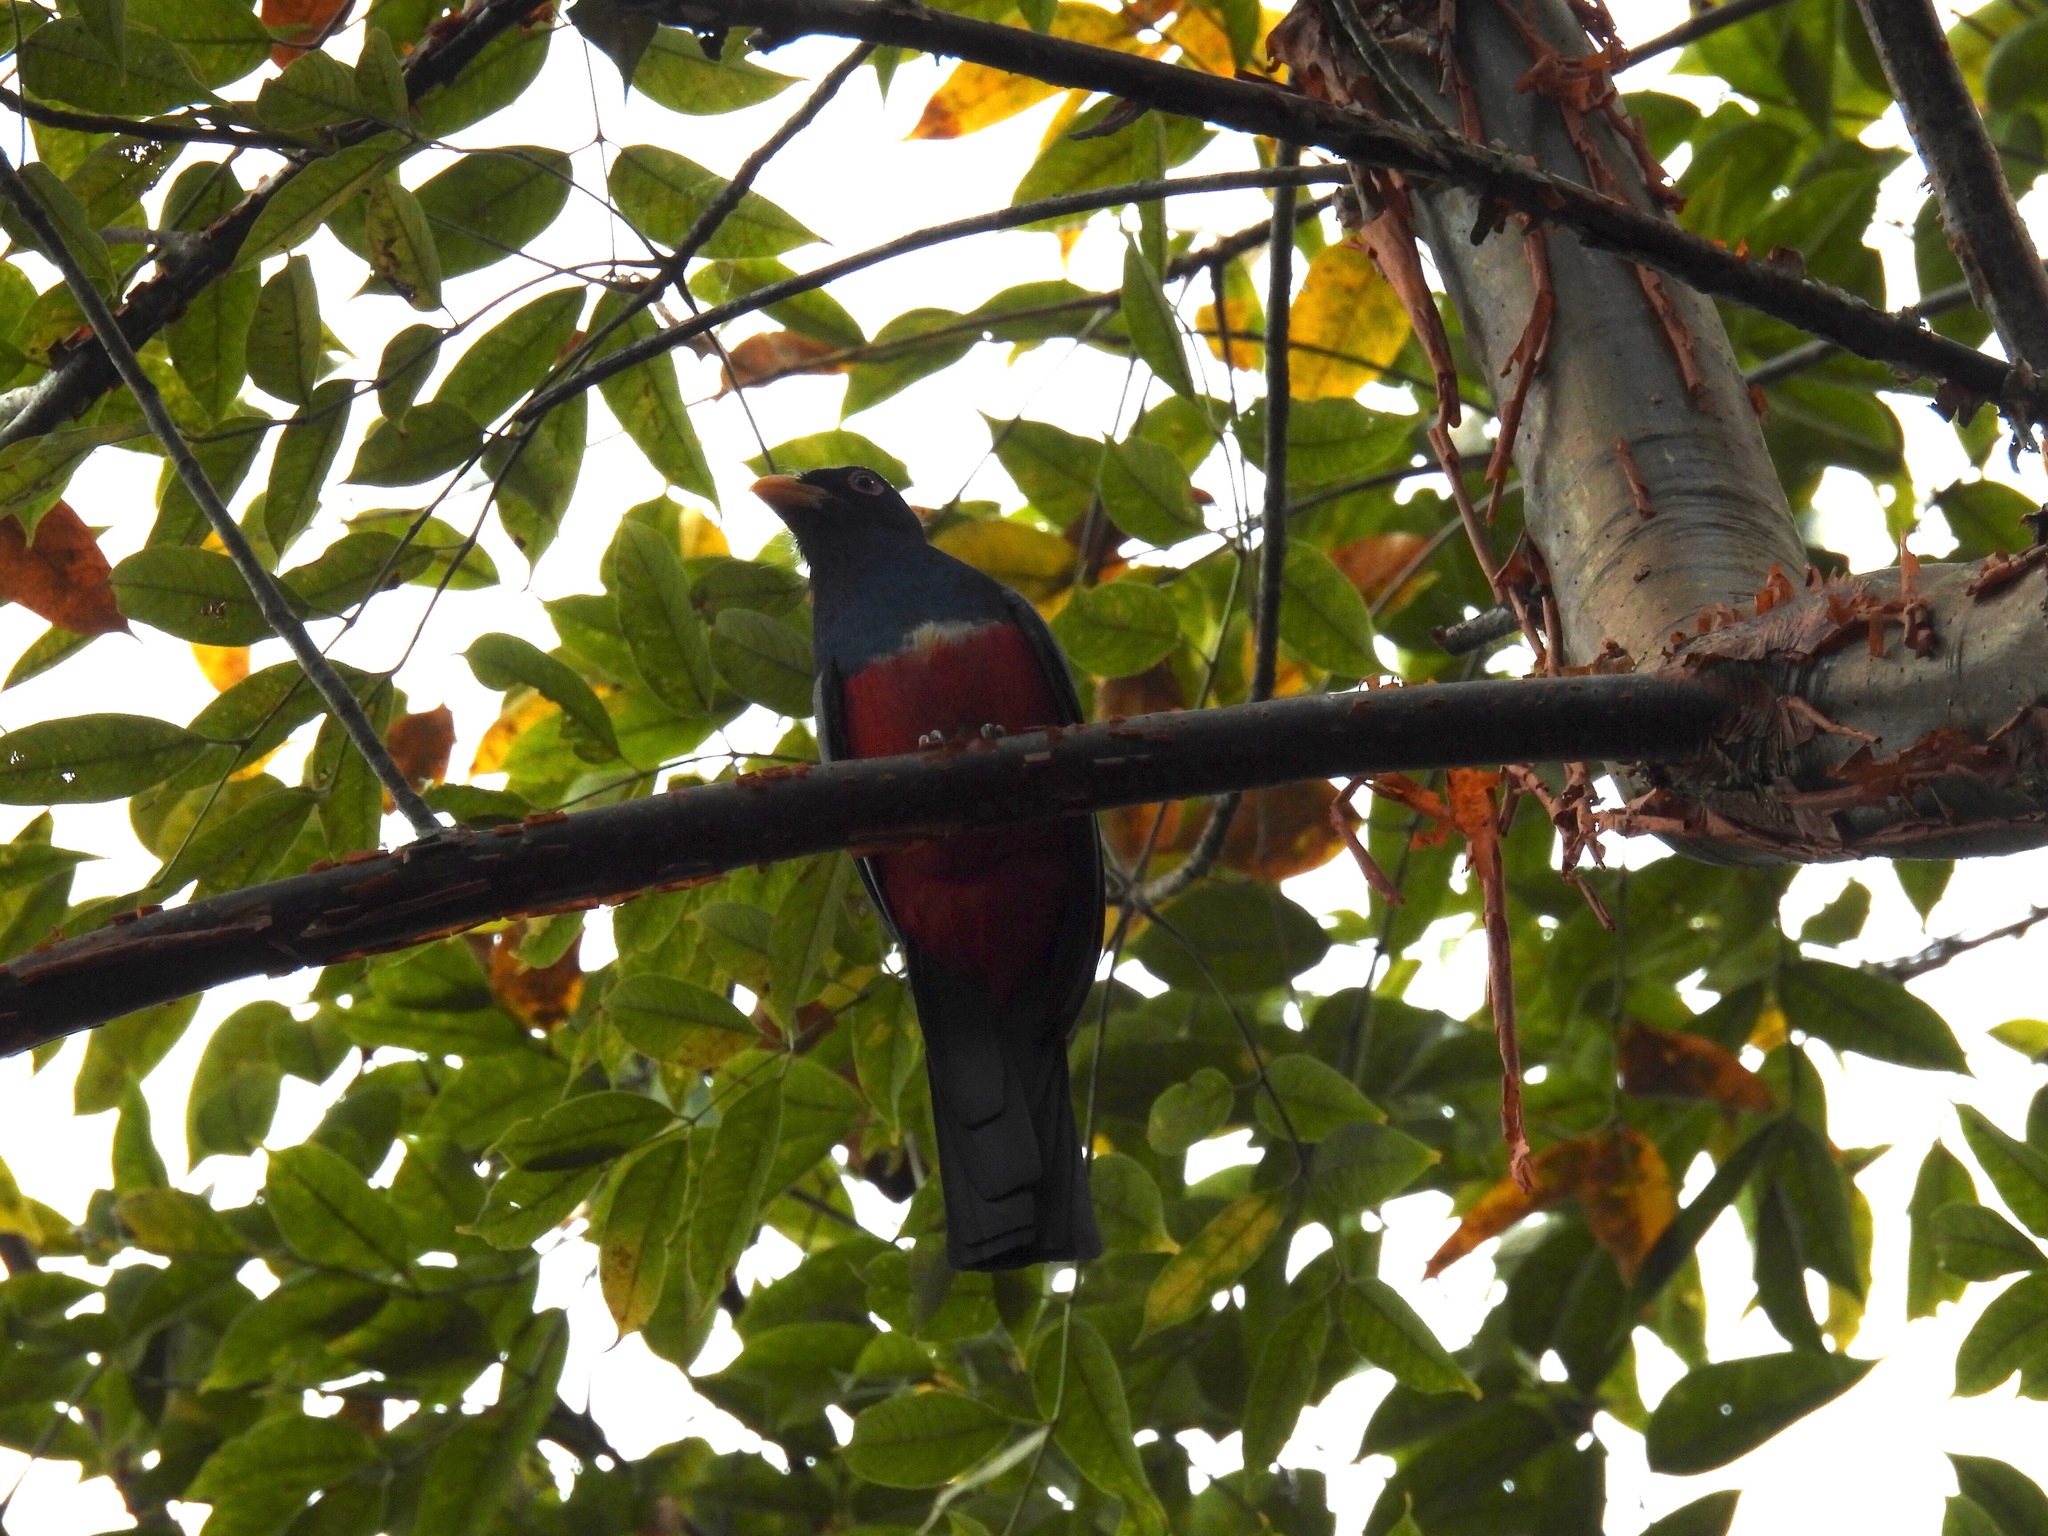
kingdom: Animalia
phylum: Chordata
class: Aves
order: Trogoniformes
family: Trogonidae
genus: Trogon
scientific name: Trogon massena
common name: Slaty-tailed trogon
